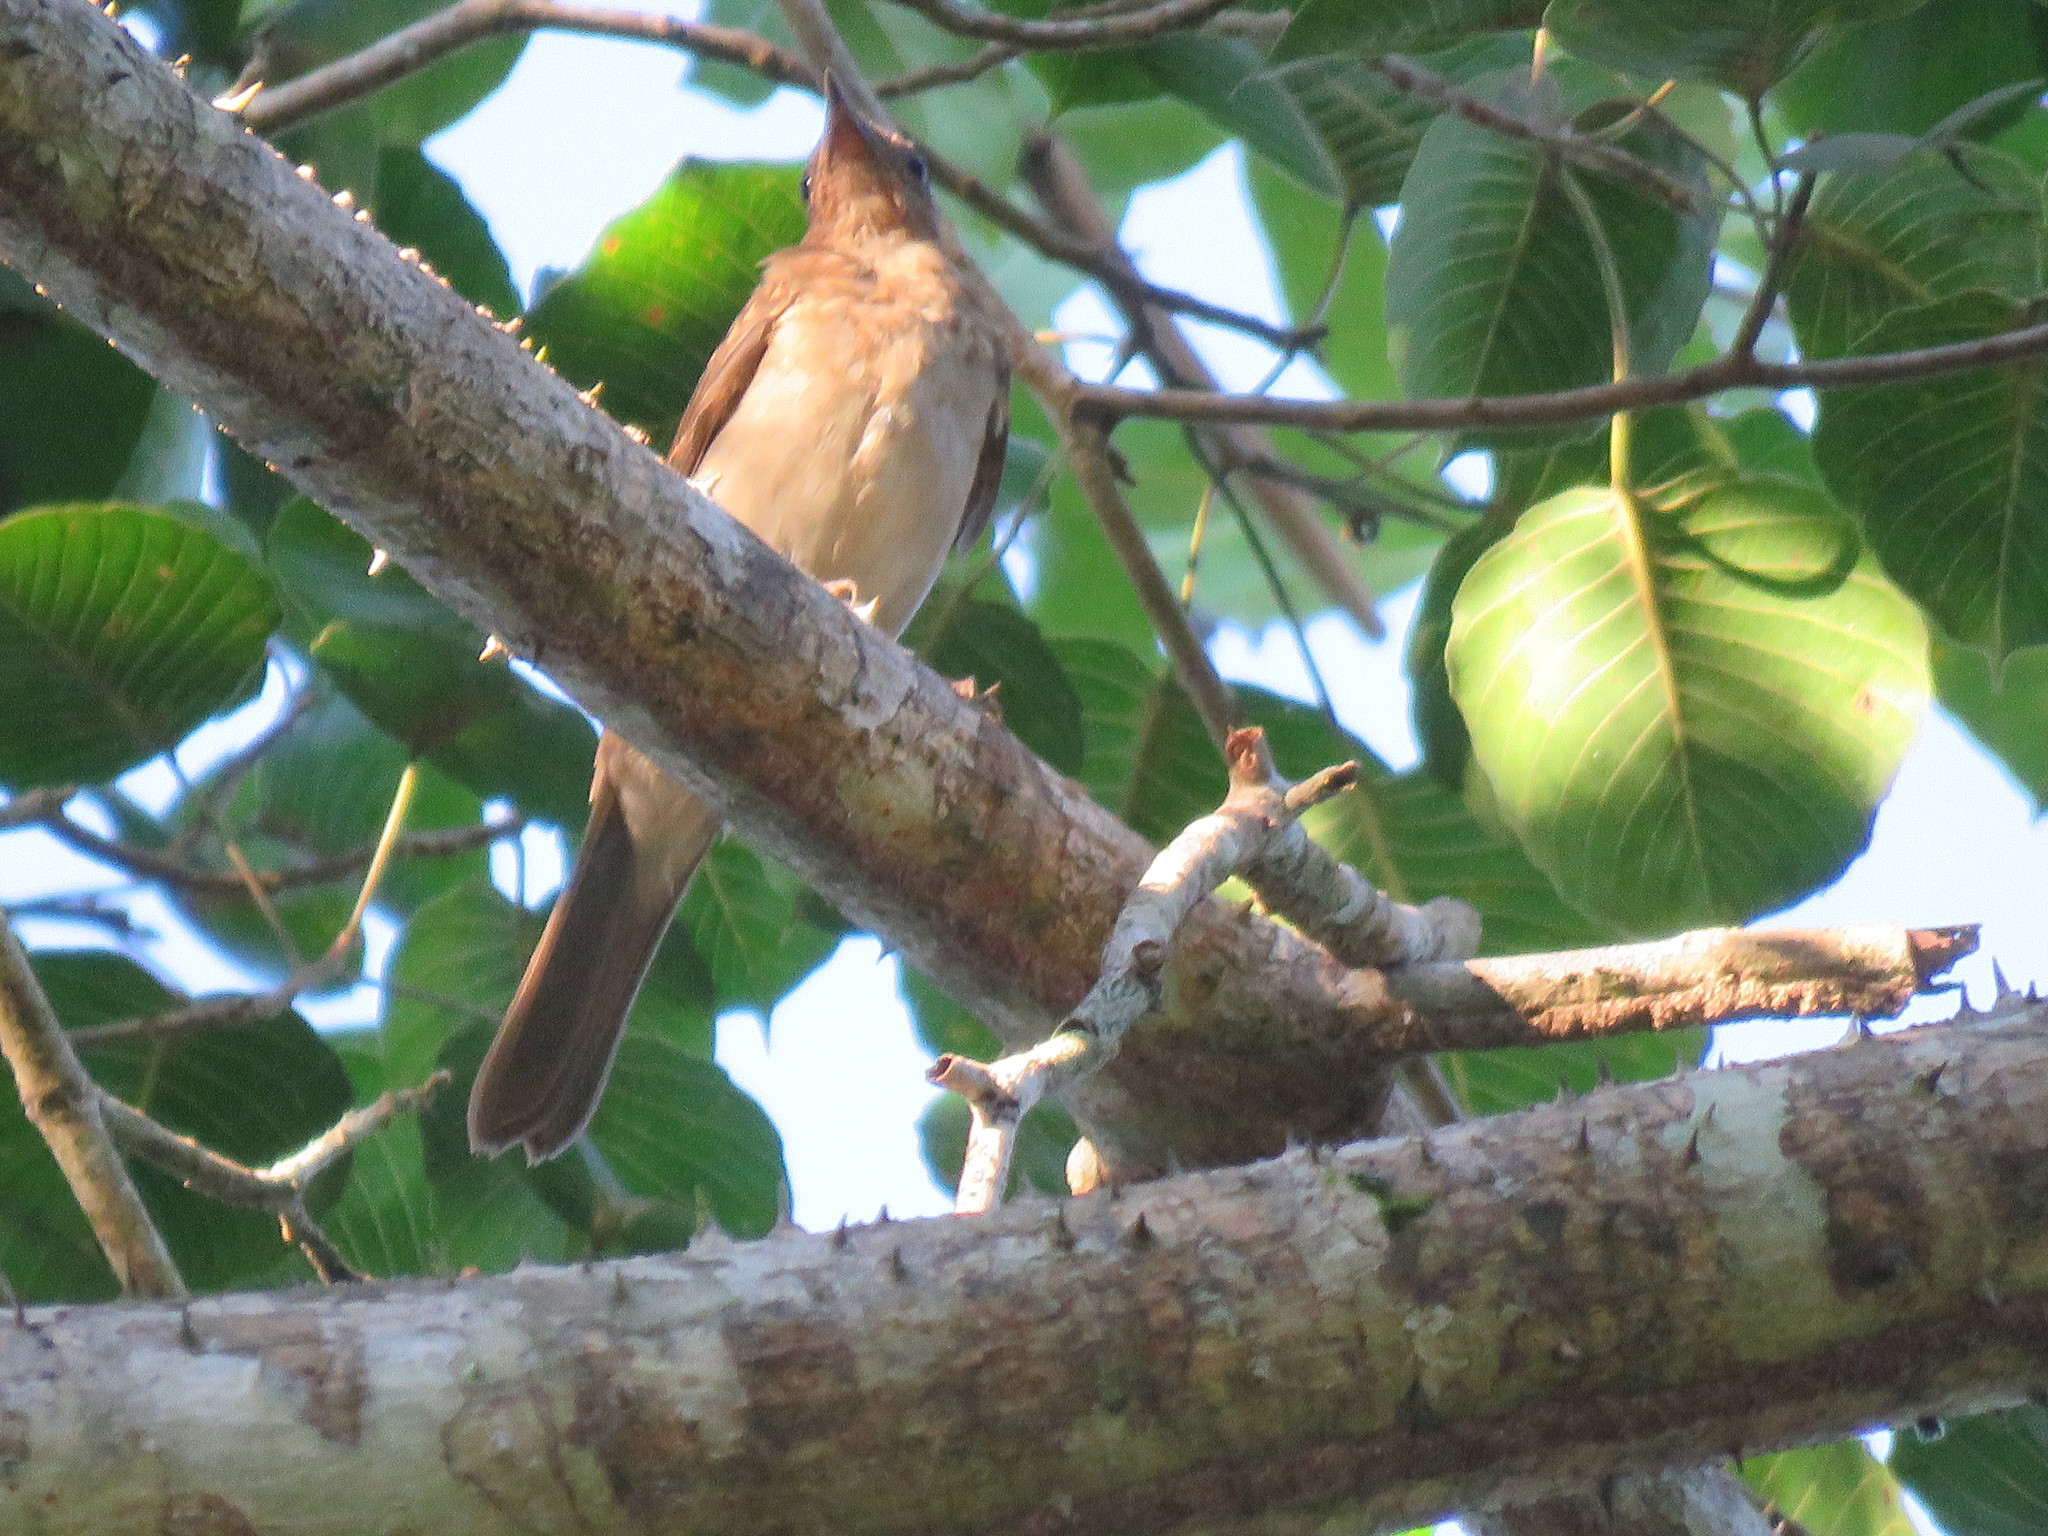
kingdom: Animalia
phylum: Chordata
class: Aves
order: Passeriformes
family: Turdidae
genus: Turdus
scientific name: Turdus hauxwelli
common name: Hauxwell's thrush
